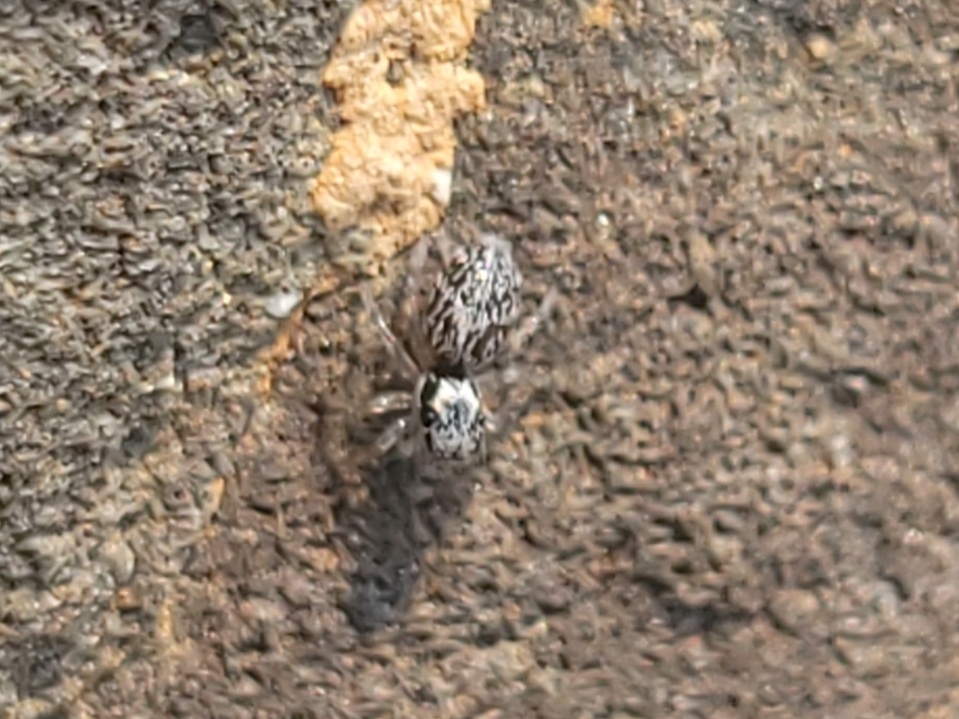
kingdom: Animalia
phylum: Arthropoda
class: Arachnida
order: Araneae
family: Salticidae
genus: Salticus
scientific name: Salticus scenicus
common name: Zebra jumper
